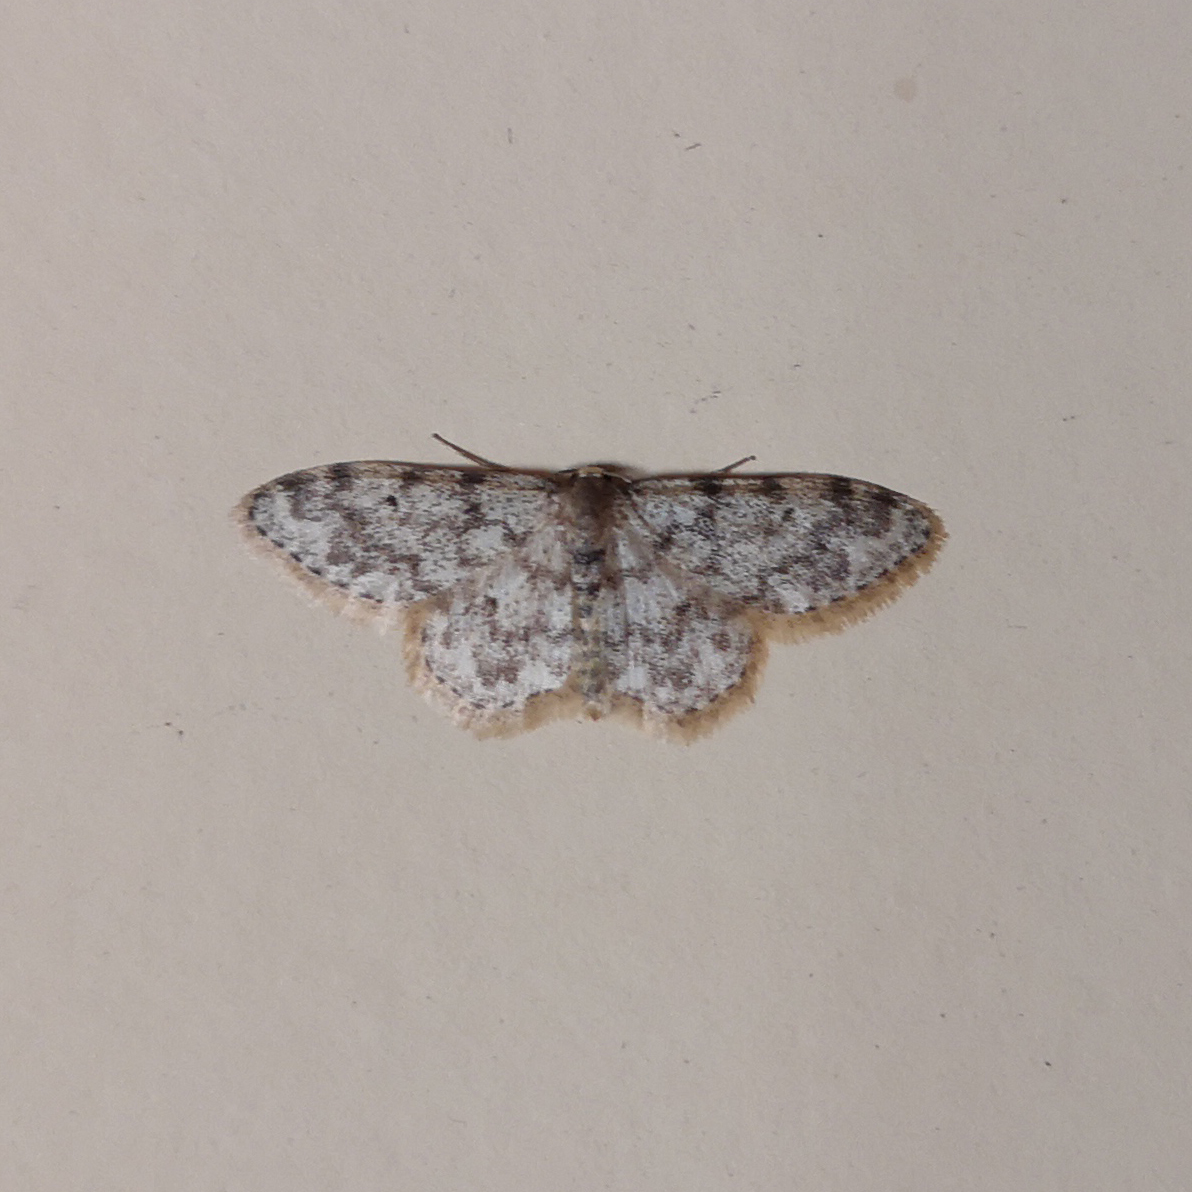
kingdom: Animalia
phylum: Arthropoda
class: Insecta
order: Lepidoptera
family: Geometridae
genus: Idaea
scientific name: Idaea contiguaria
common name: Weaver's wave
